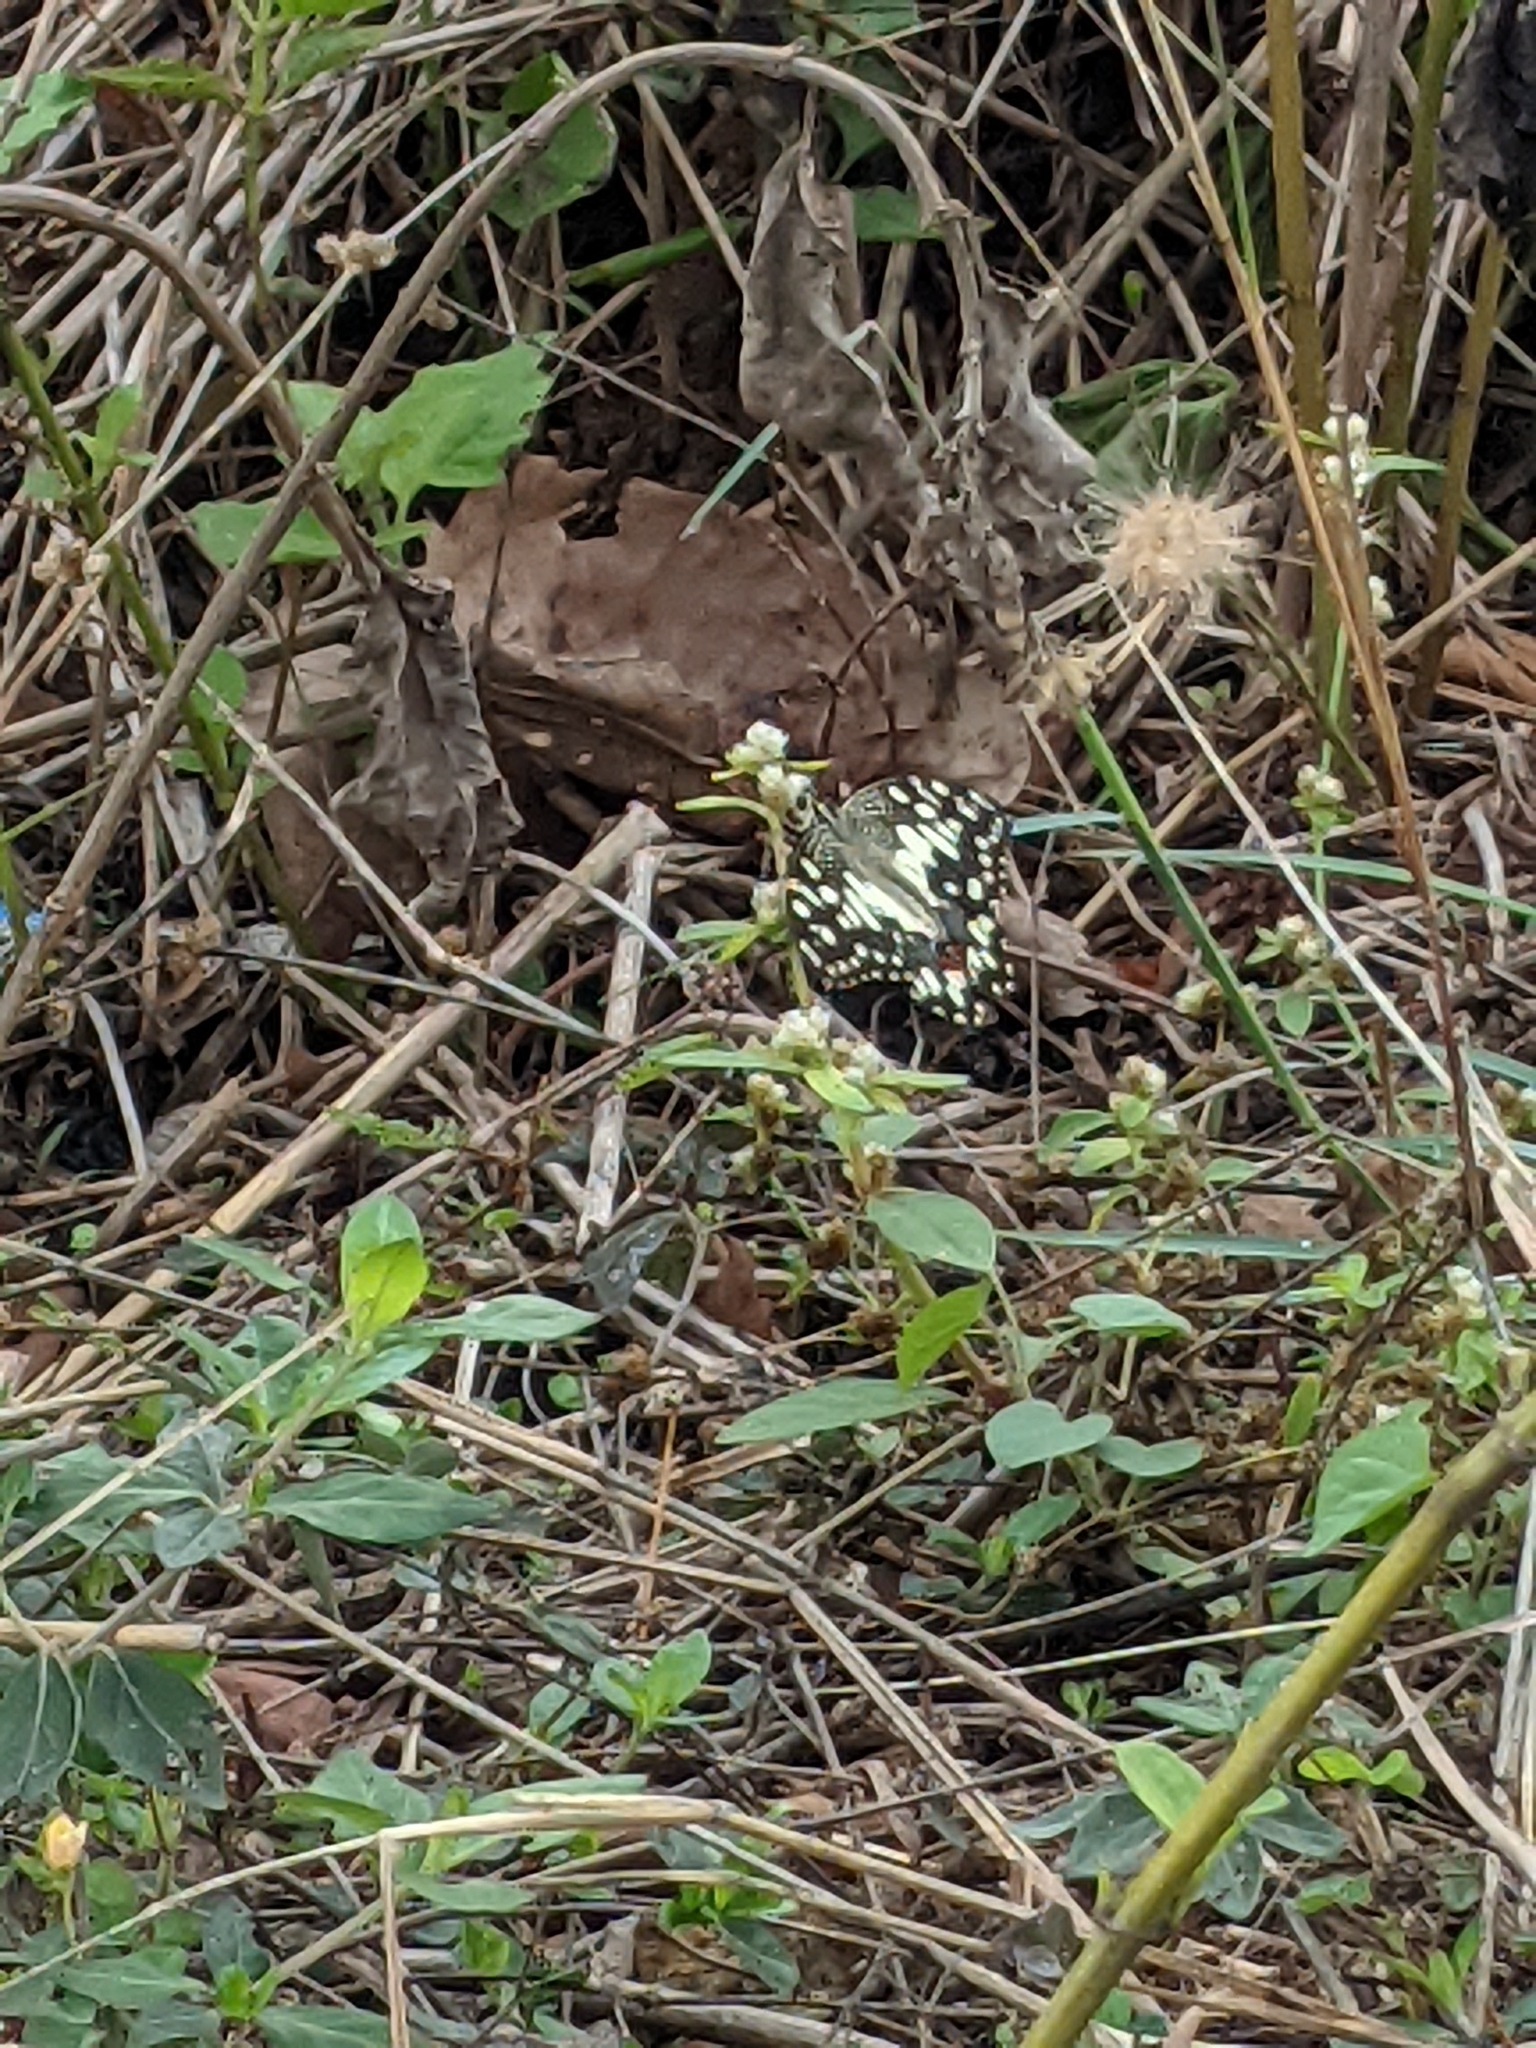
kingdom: Animalia
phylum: Arthropoda
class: Insecta
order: Lepidoptera
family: Papilionidae
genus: Papilio
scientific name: Papilio demoleus
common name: Lime butterfly
